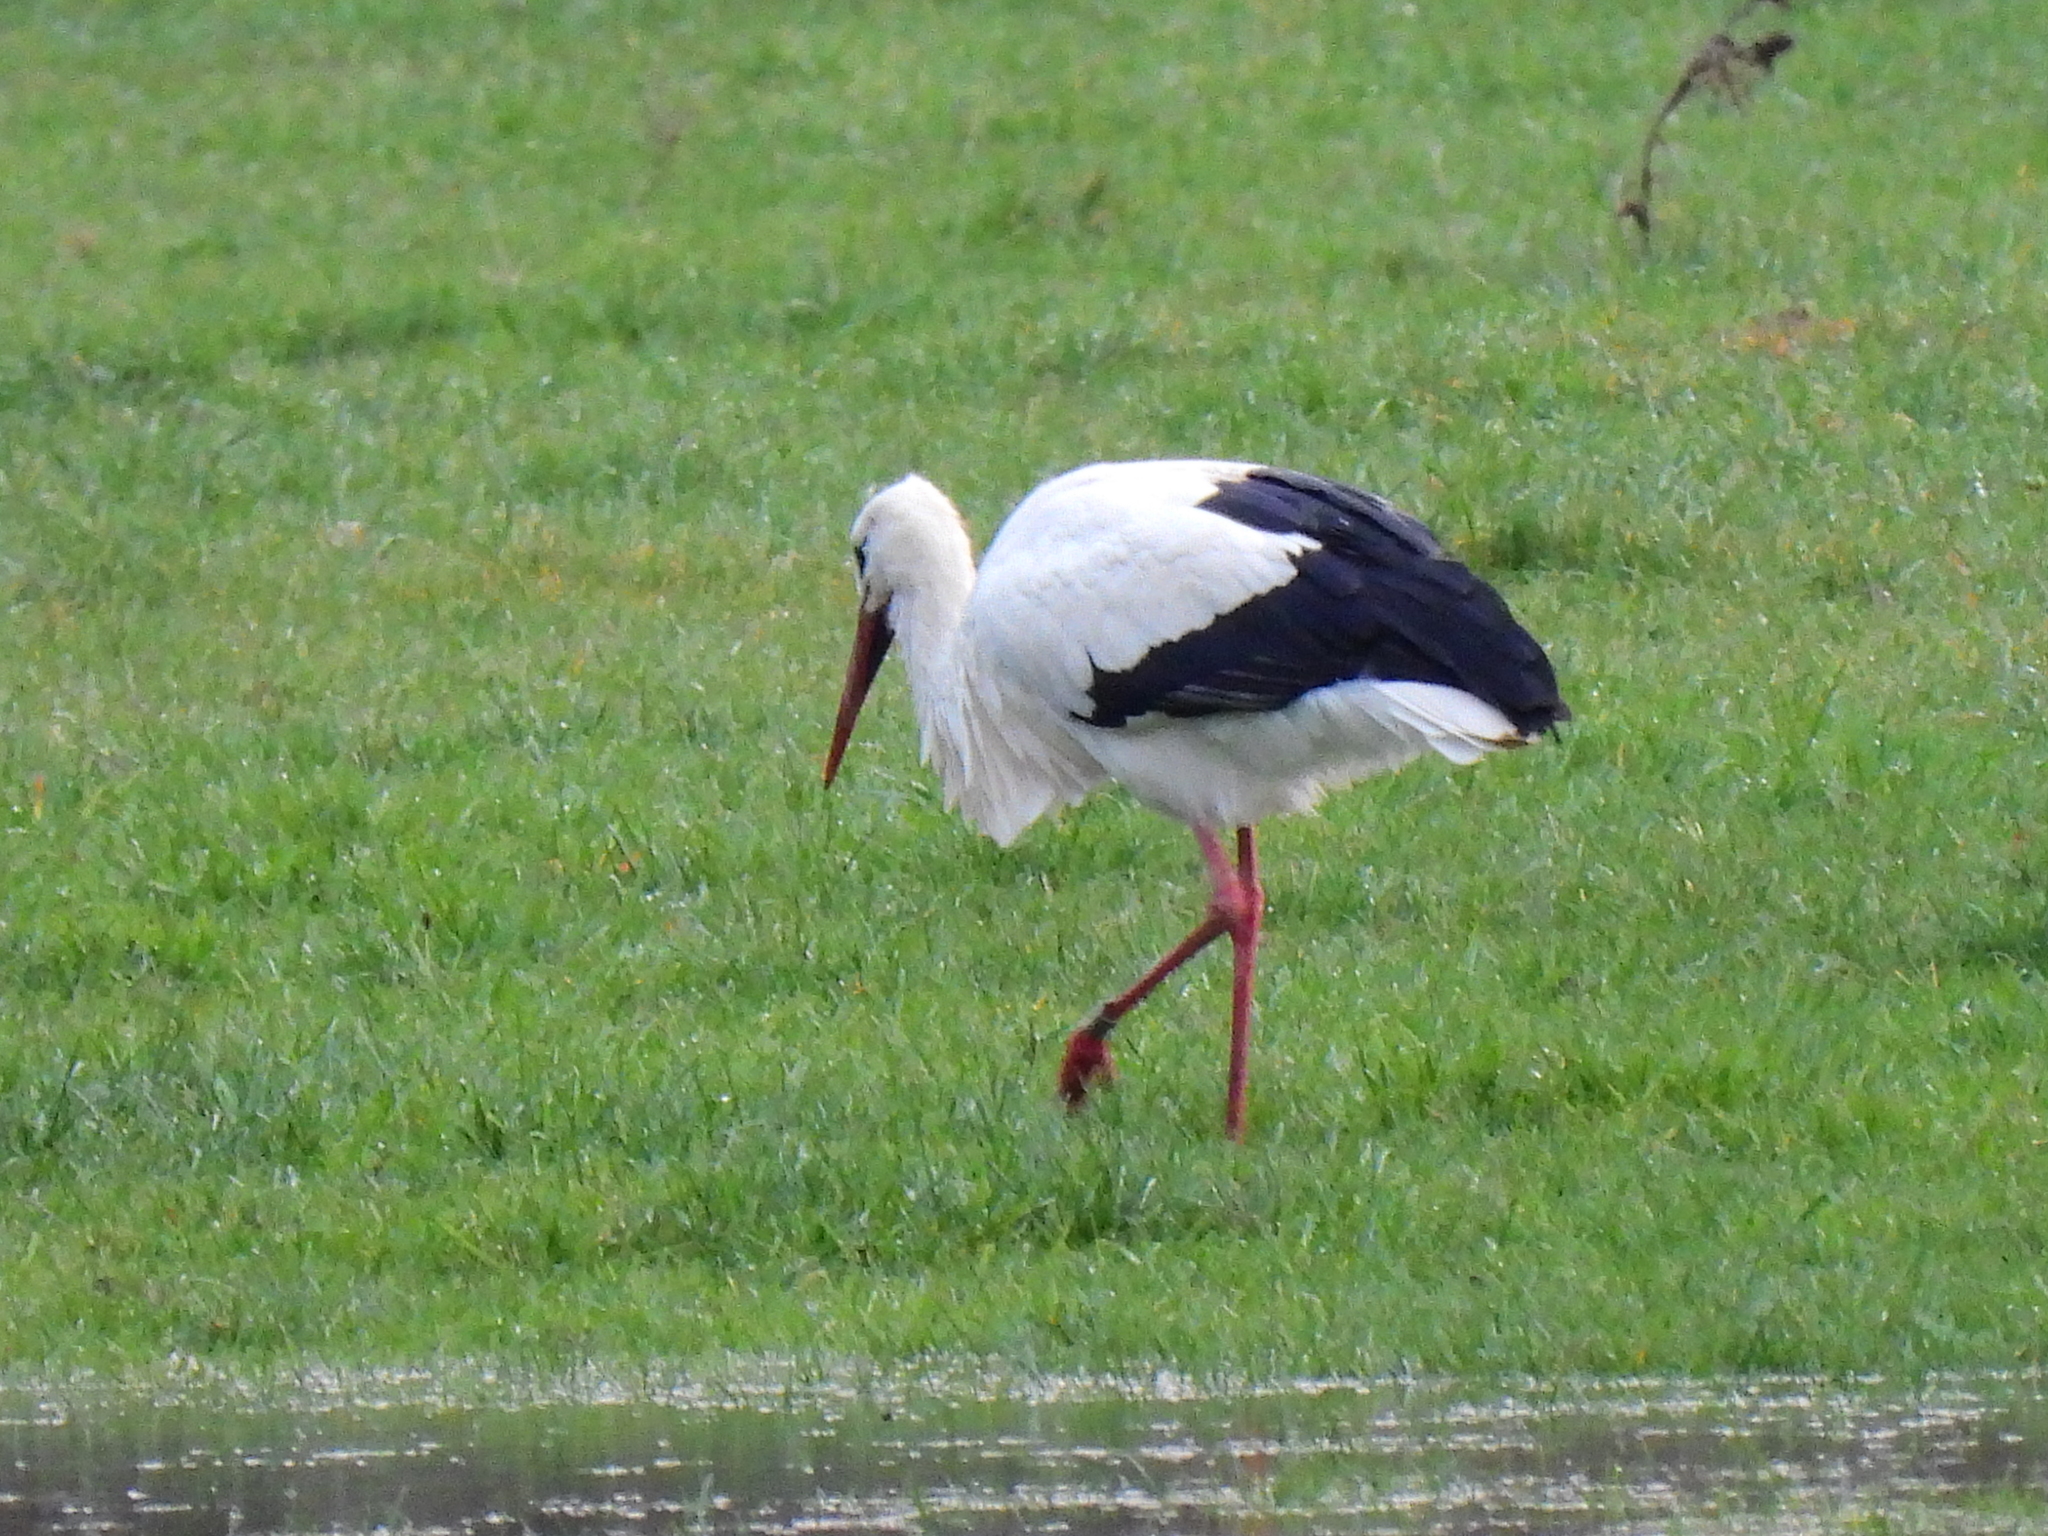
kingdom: Animalia
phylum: Chordata
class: Aves
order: Ciconiiformes
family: Ciconiidae
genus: Ciconia
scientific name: Ciconia ciconia
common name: White stork
